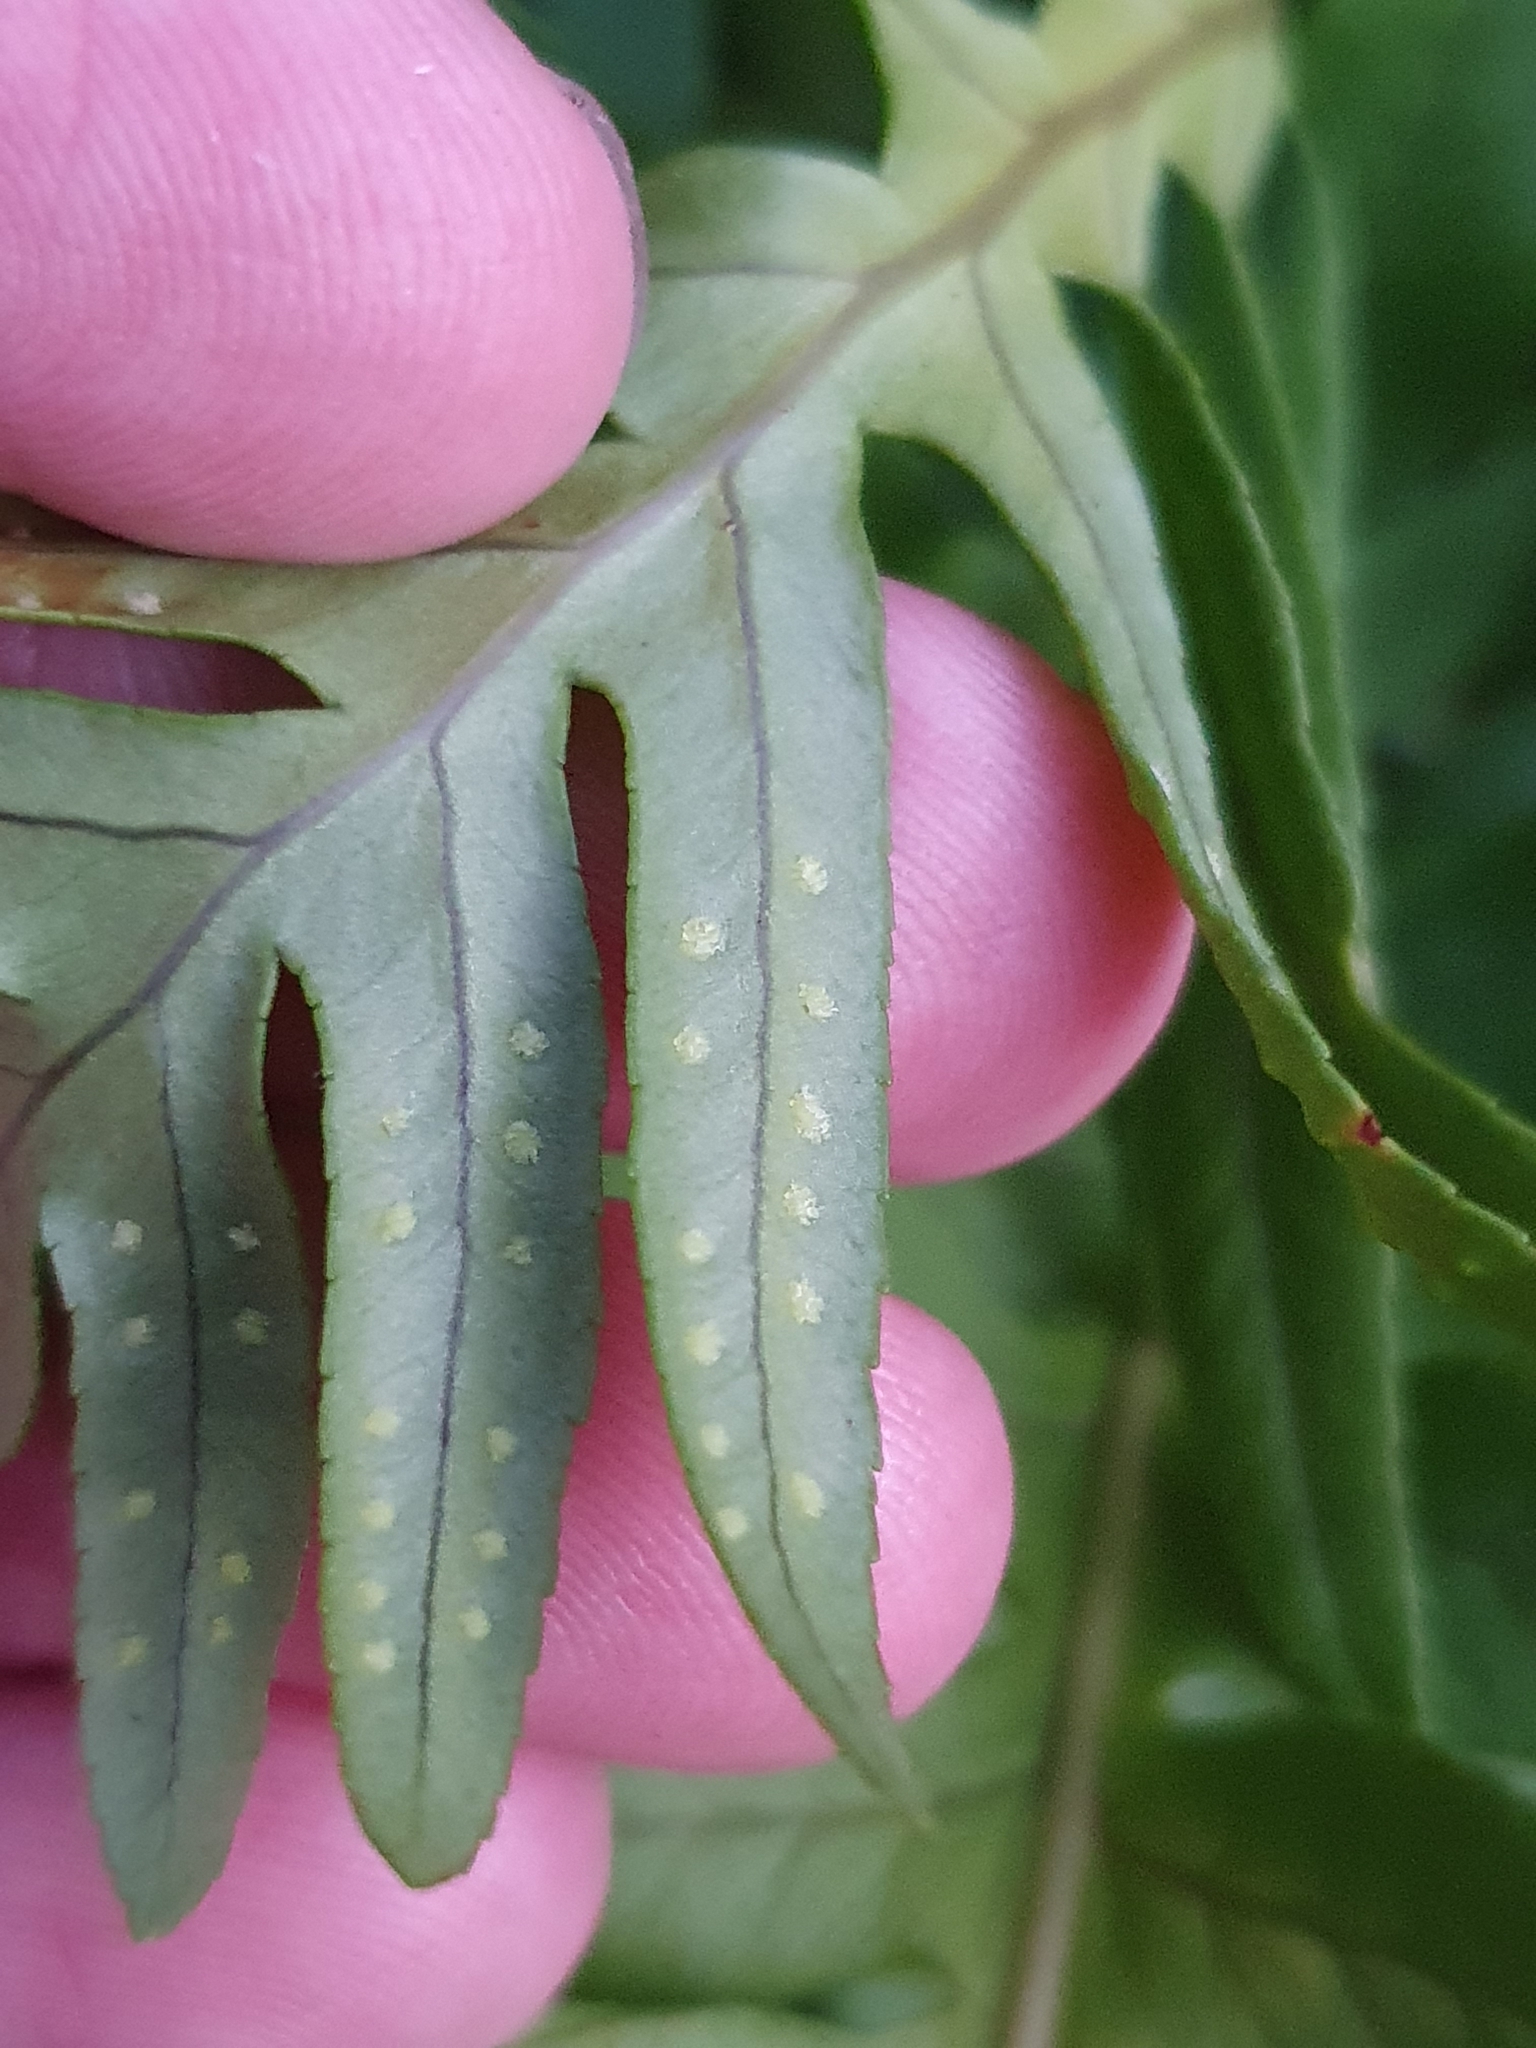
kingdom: Plantae
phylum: Tracheophyta
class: Polypodiopsida
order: Polypodiales
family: Polypodiaceae
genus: Polypodium
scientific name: Polypodium cambricum
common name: Southern polypody
